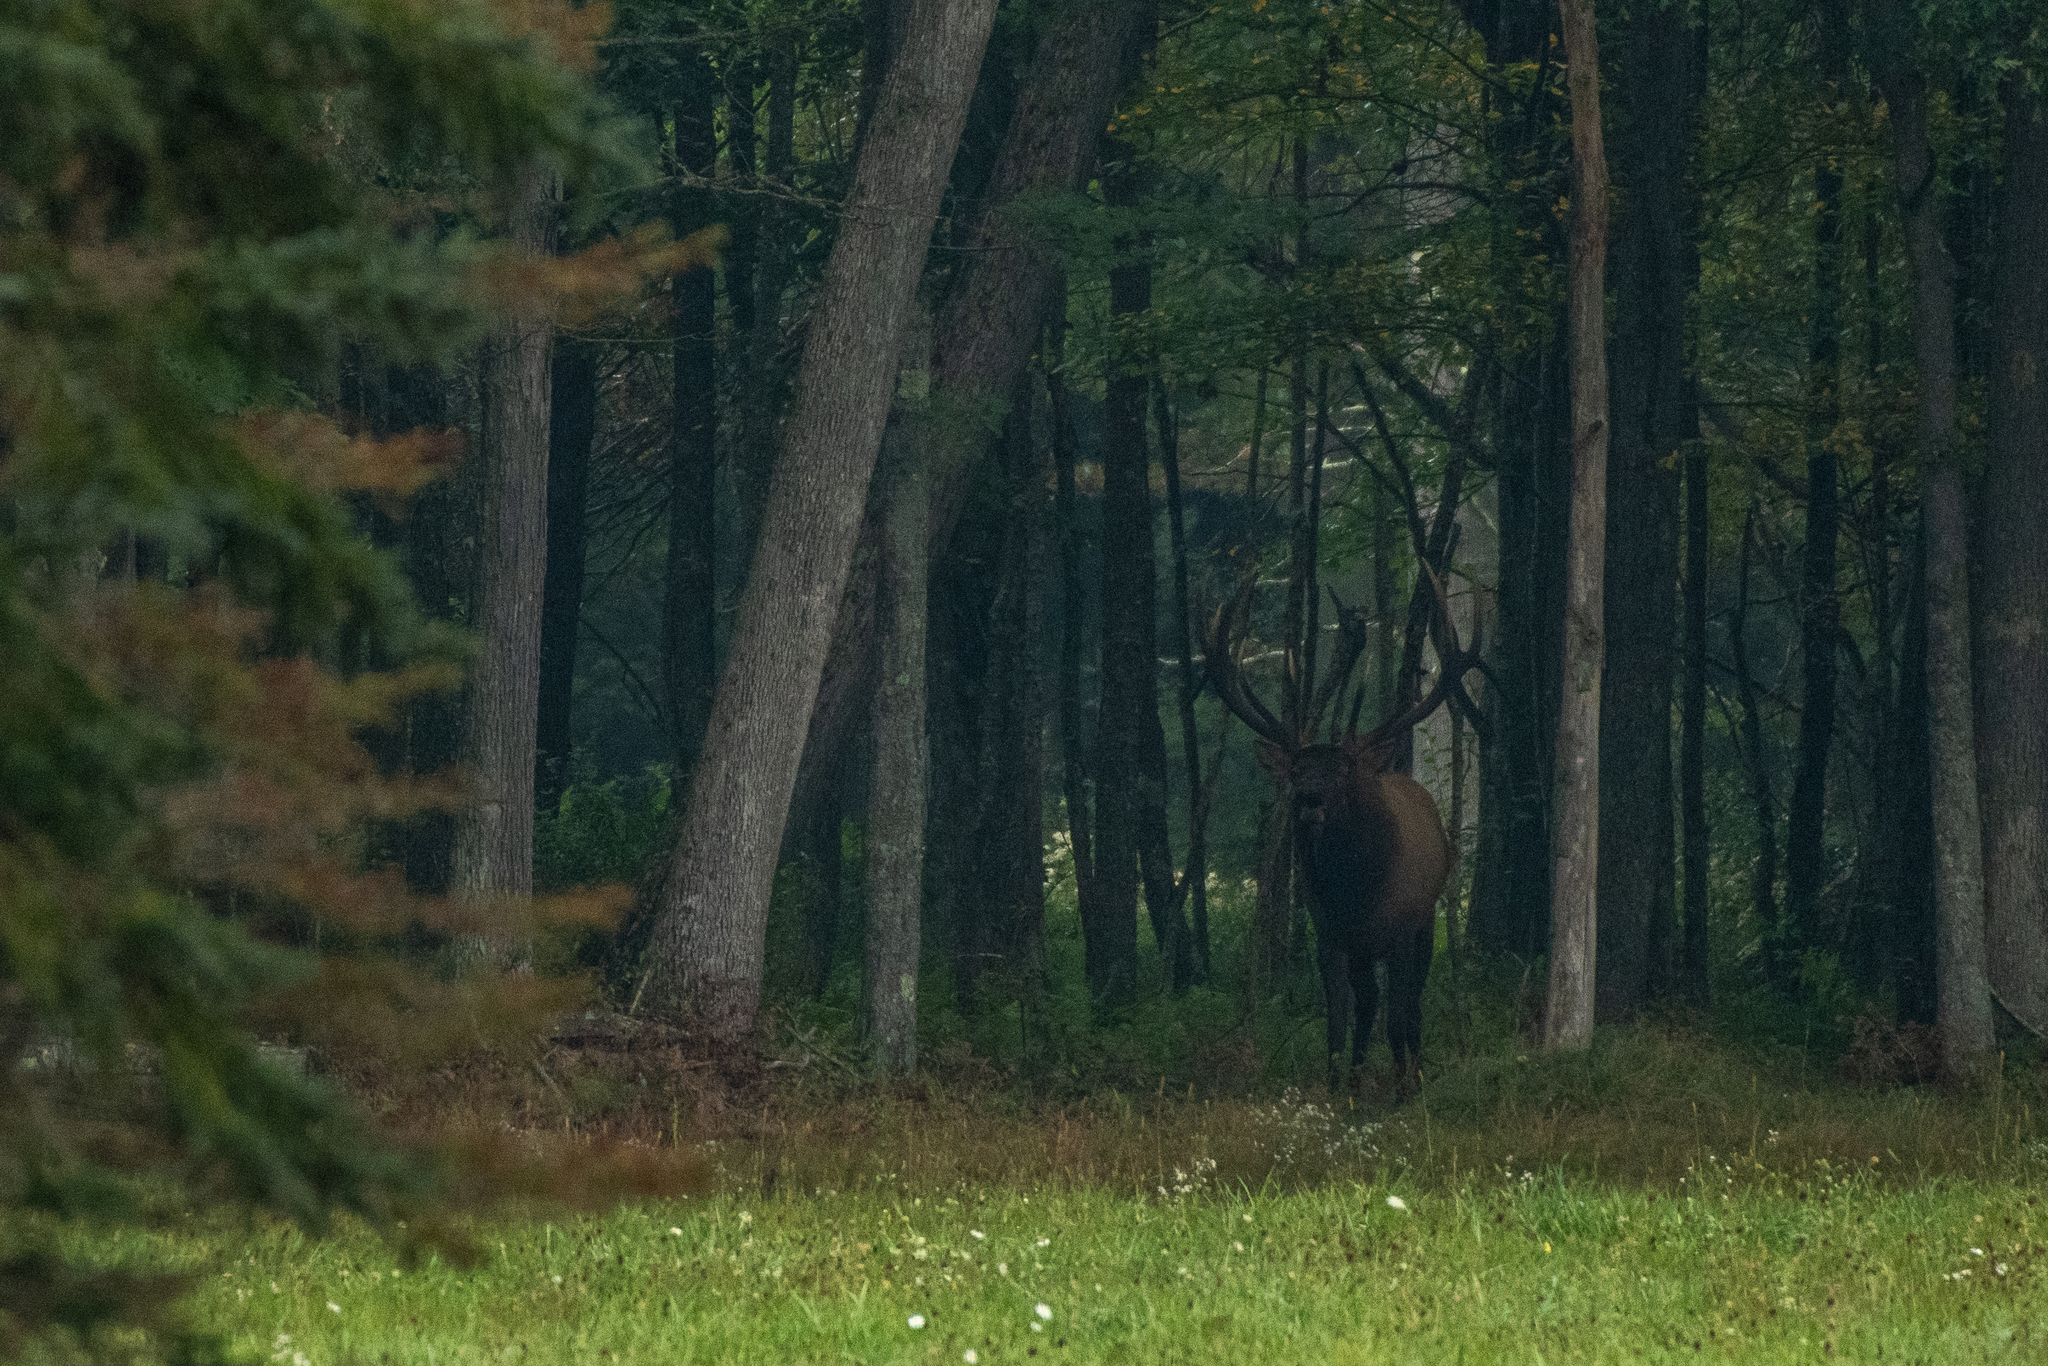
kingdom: Animalia
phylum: Chordata
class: Mammalia
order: Artiodactyla
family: Cervidae
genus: Cervus
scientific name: Cervus elaphus
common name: Red deer
